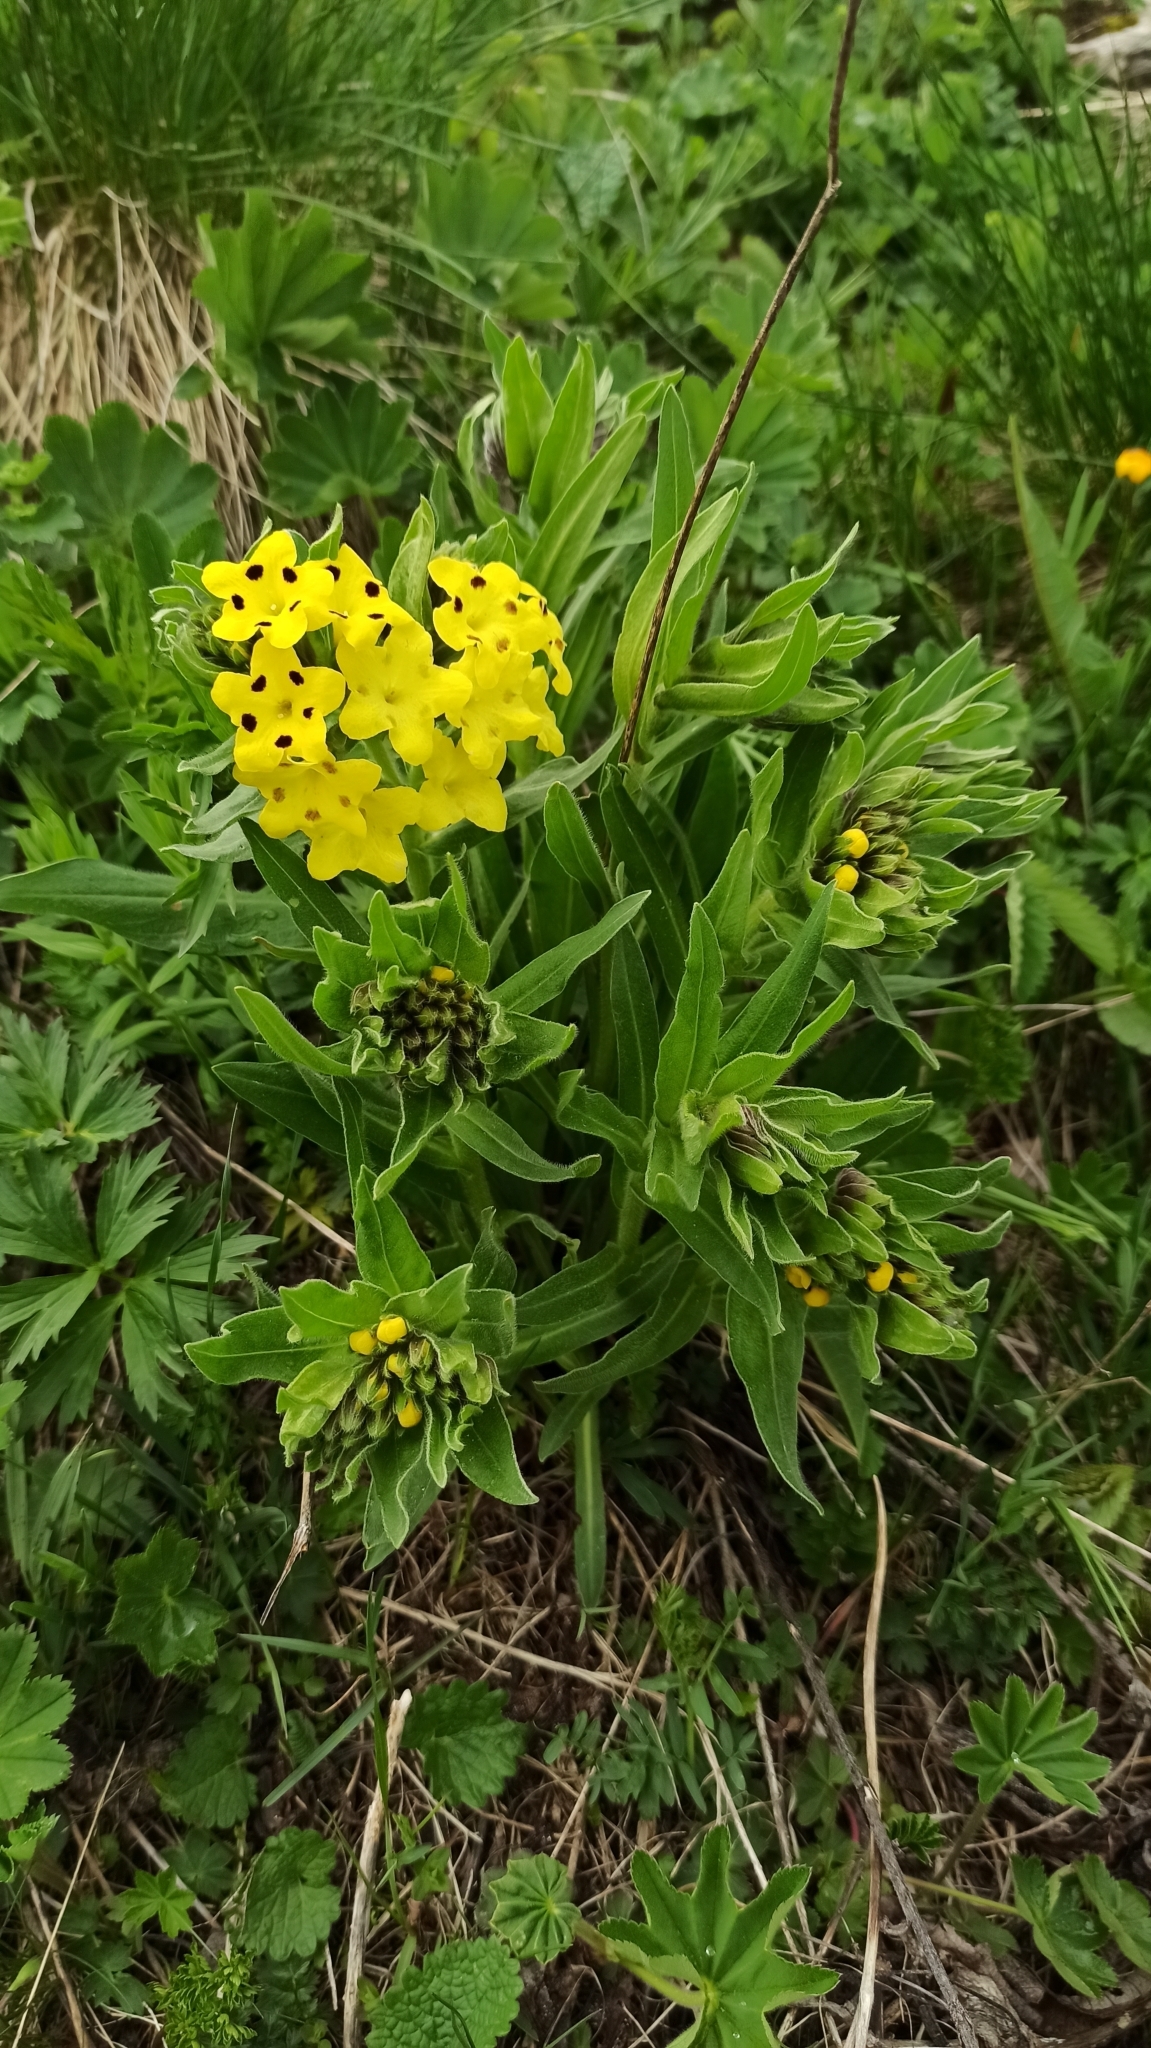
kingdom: Plantae
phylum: Tracheophyta
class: Magnoliopsida
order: Boraginales
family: Boraginaceae
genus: Huynhia
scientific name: Huynhia pulchra
